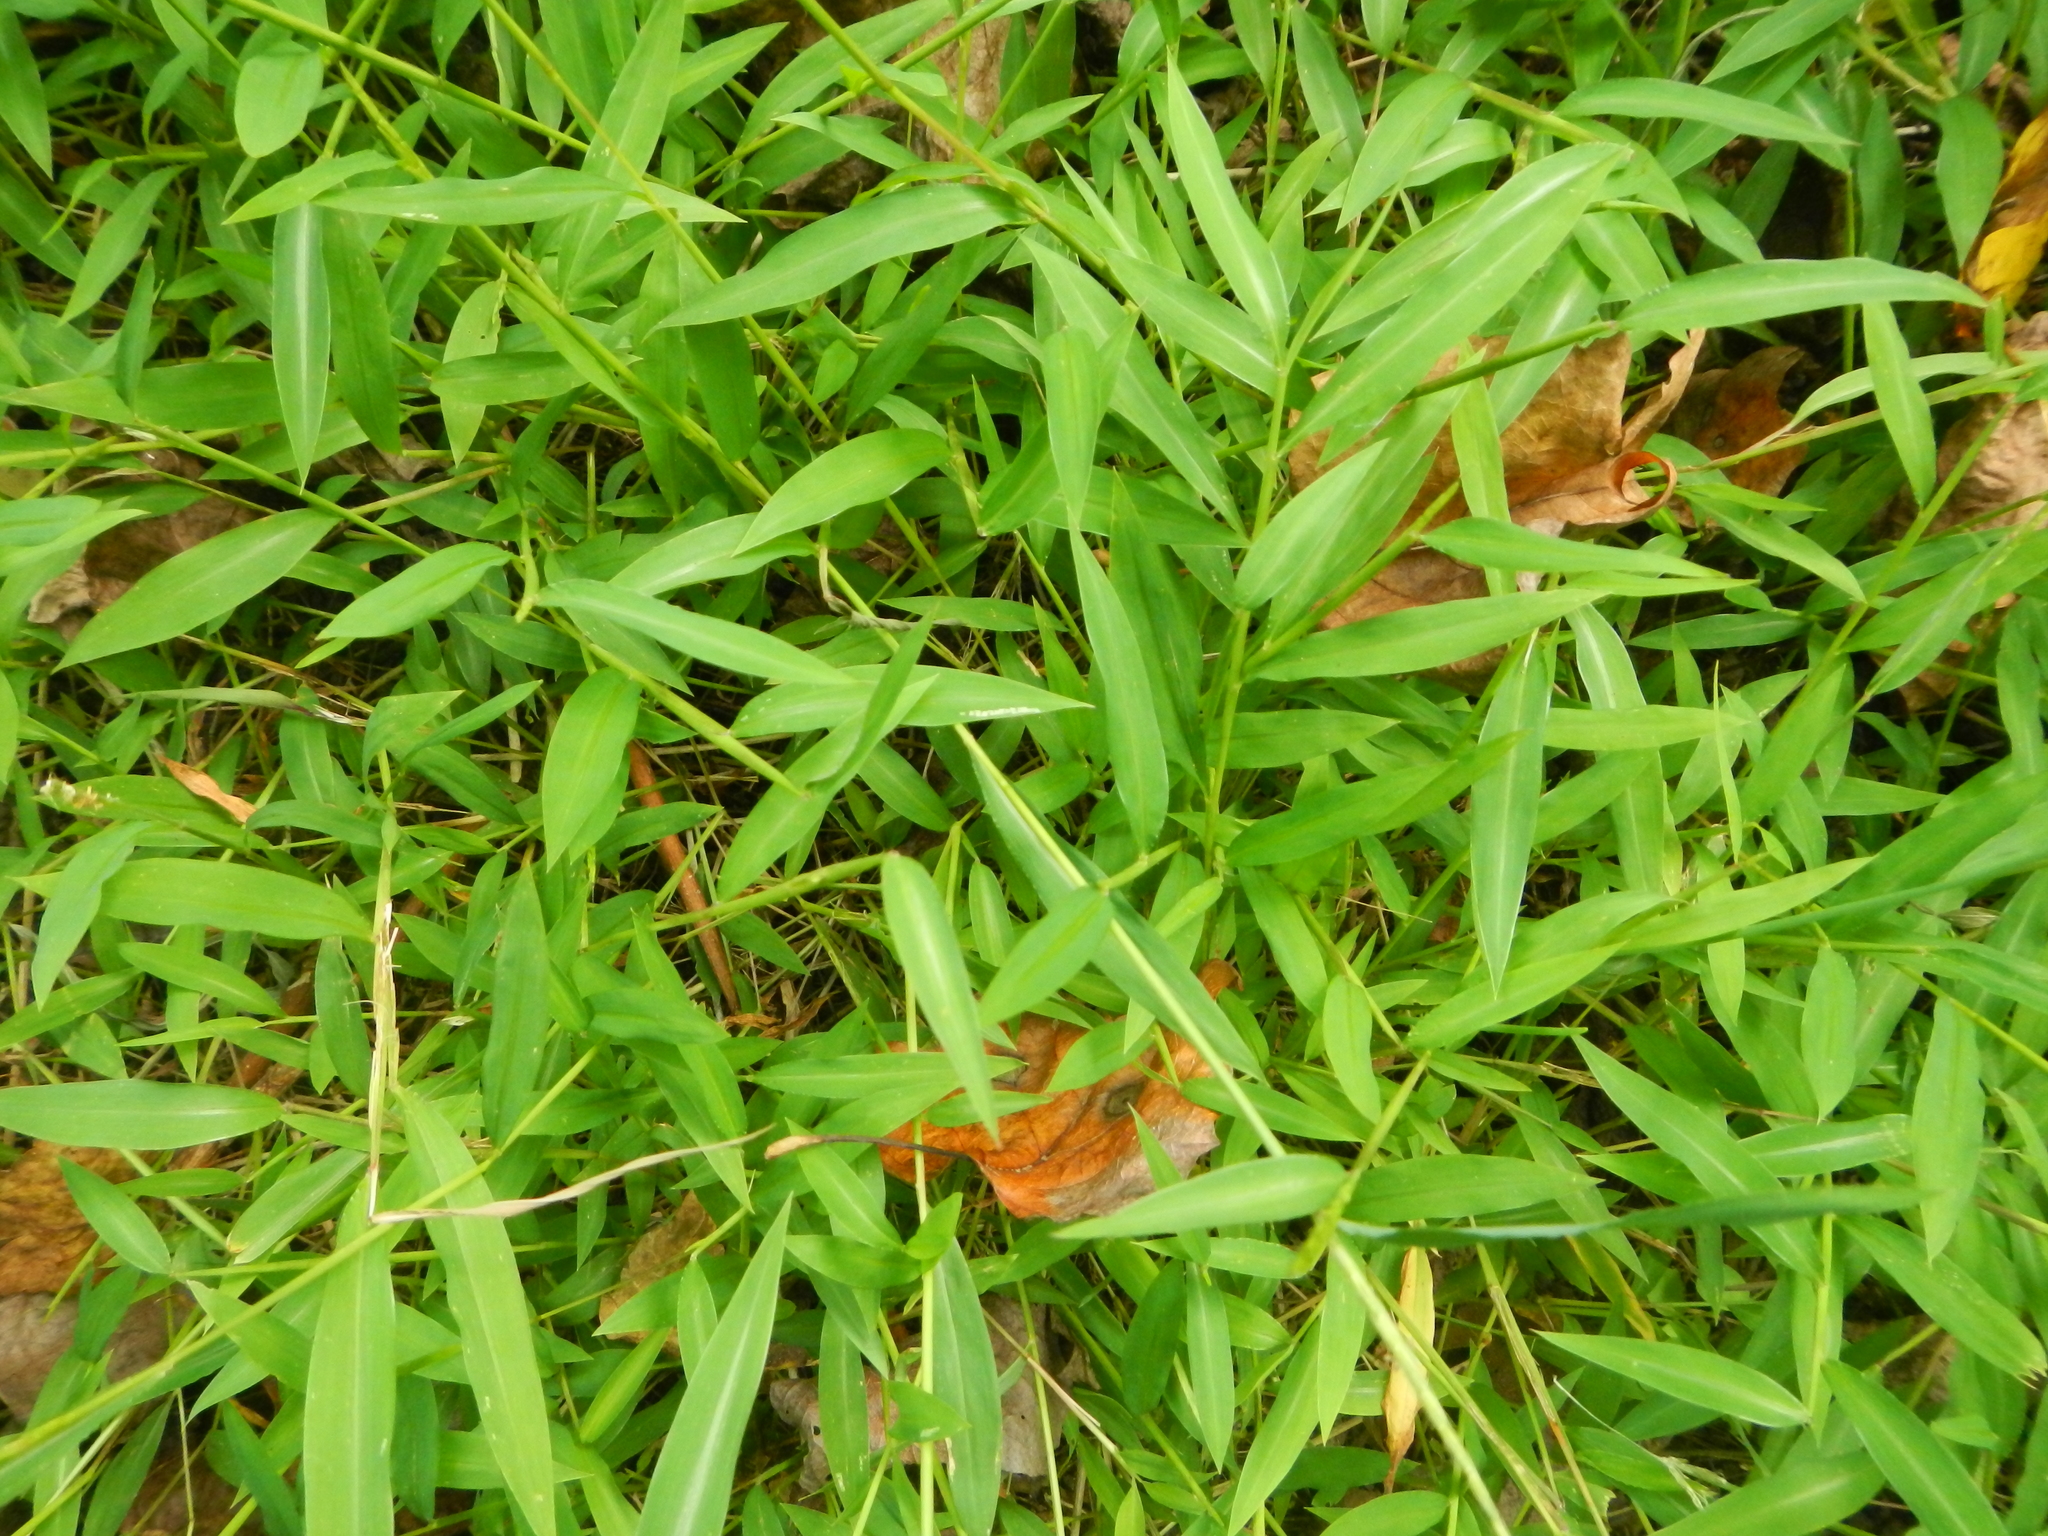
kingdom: Plantae
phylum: Tracheophyta
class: Liliopsida
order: Poales
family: Poaceae
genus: Microstegium
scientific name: Microstegium vimineum
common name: Japanese stiltgrass
